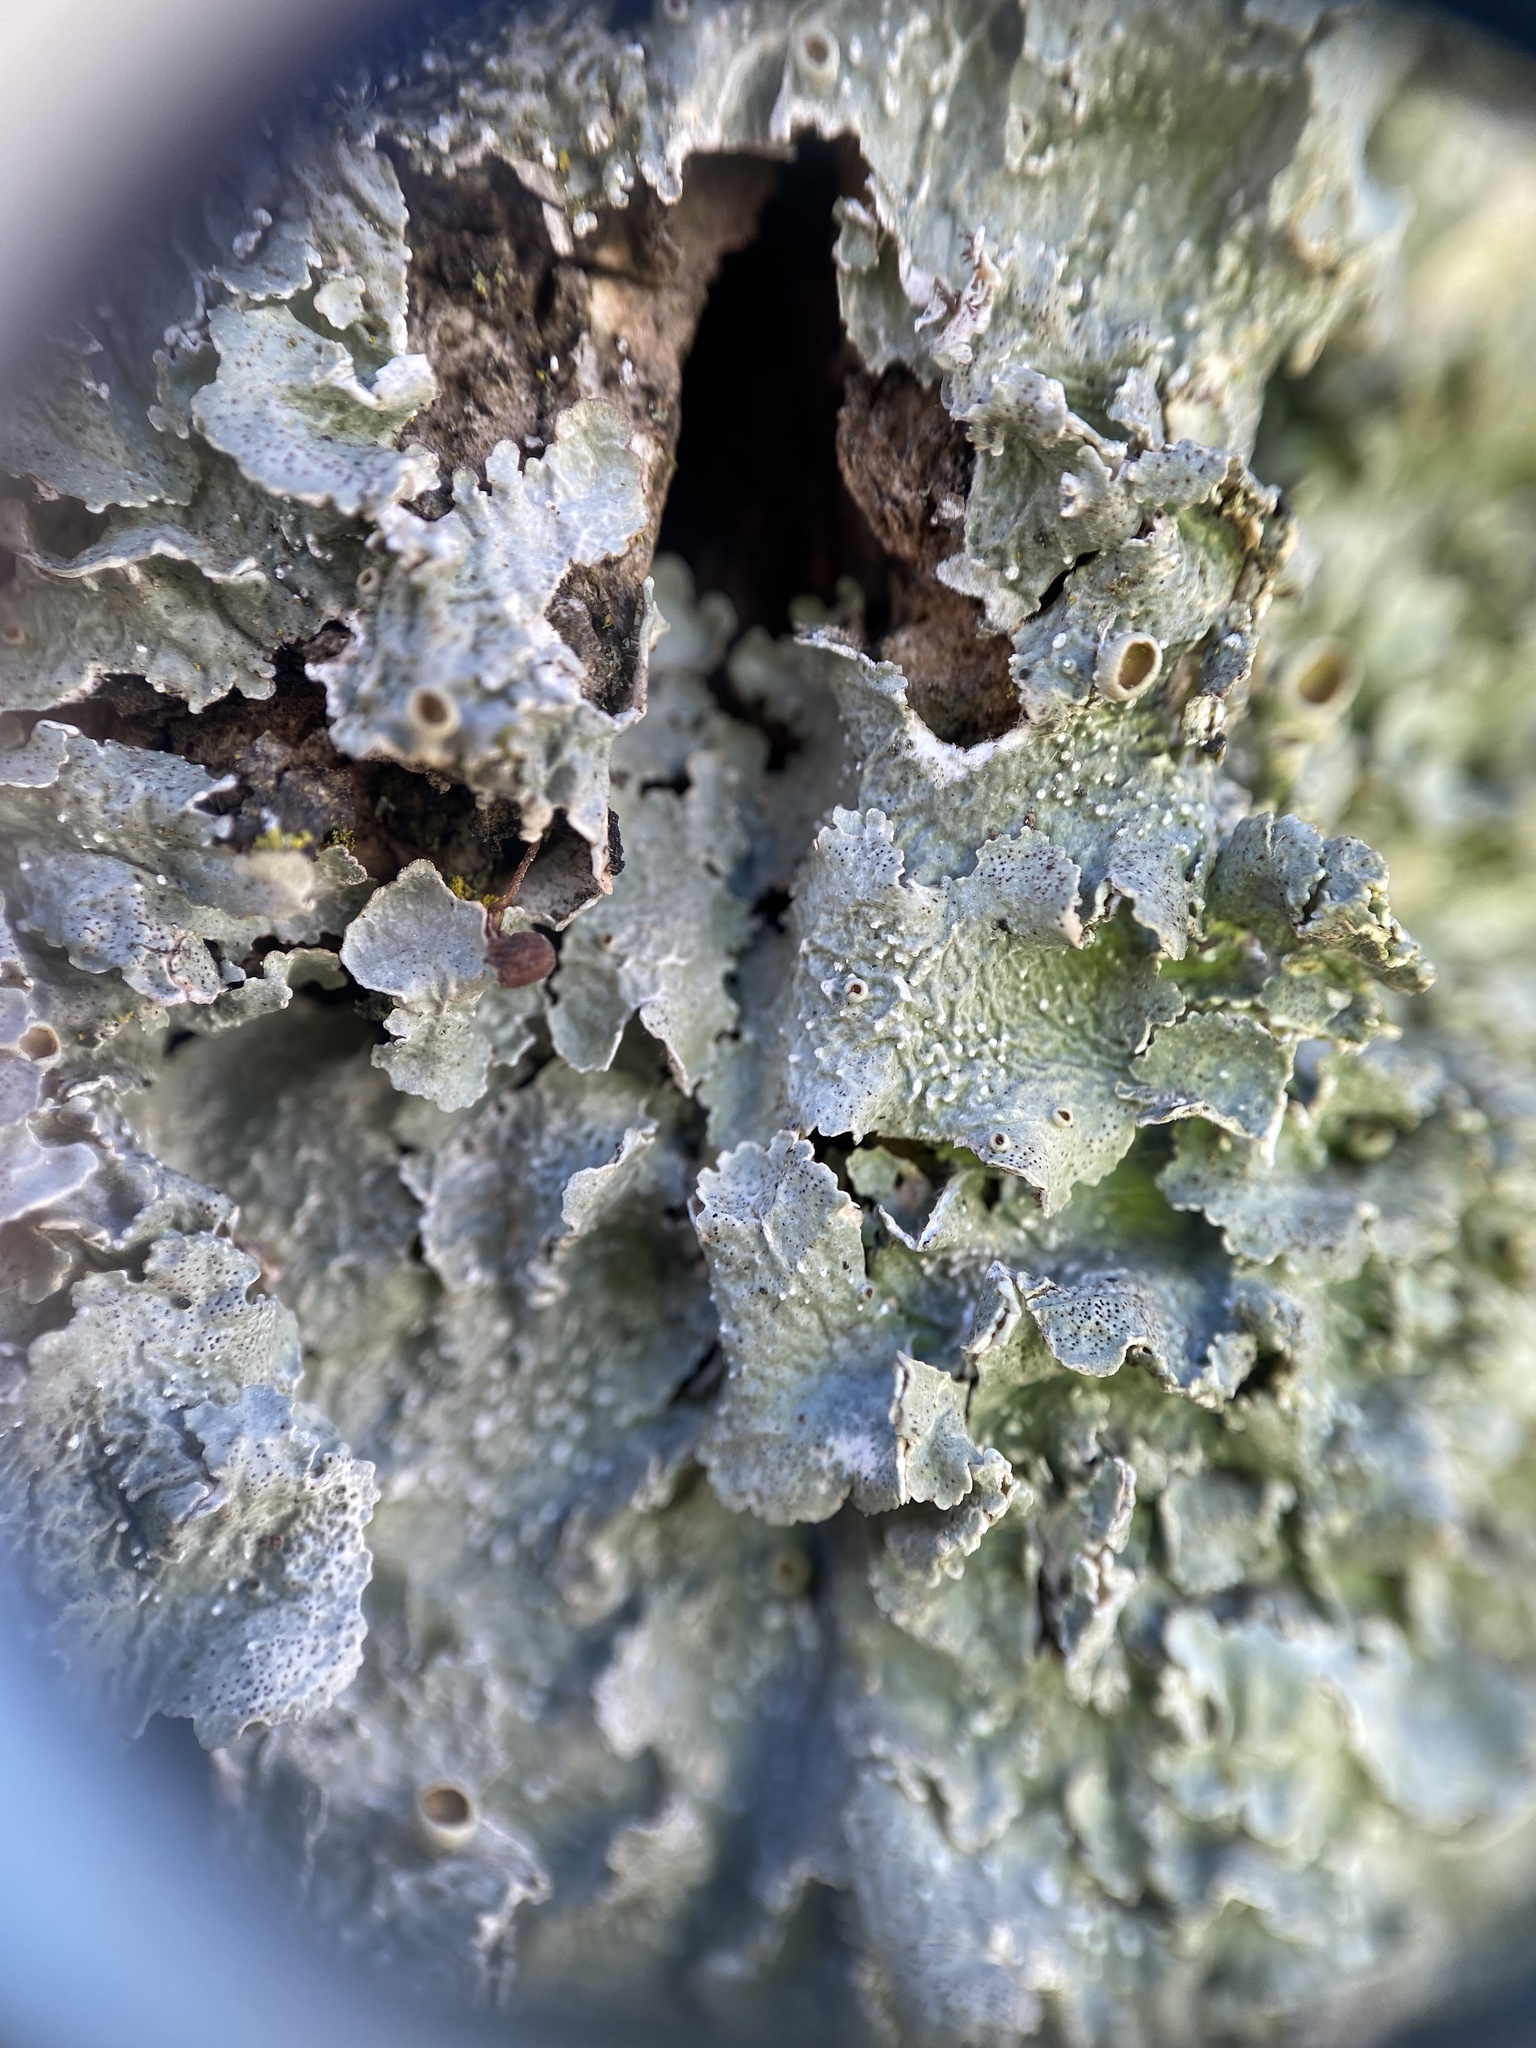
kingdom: Fungi
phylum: Ascomycota
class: Lecanoromycetes
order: Lecanorales
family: Parmeliaceae
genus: Punctelia
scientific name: Punctelia bolliana
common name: Eastern speckled shield lichen
